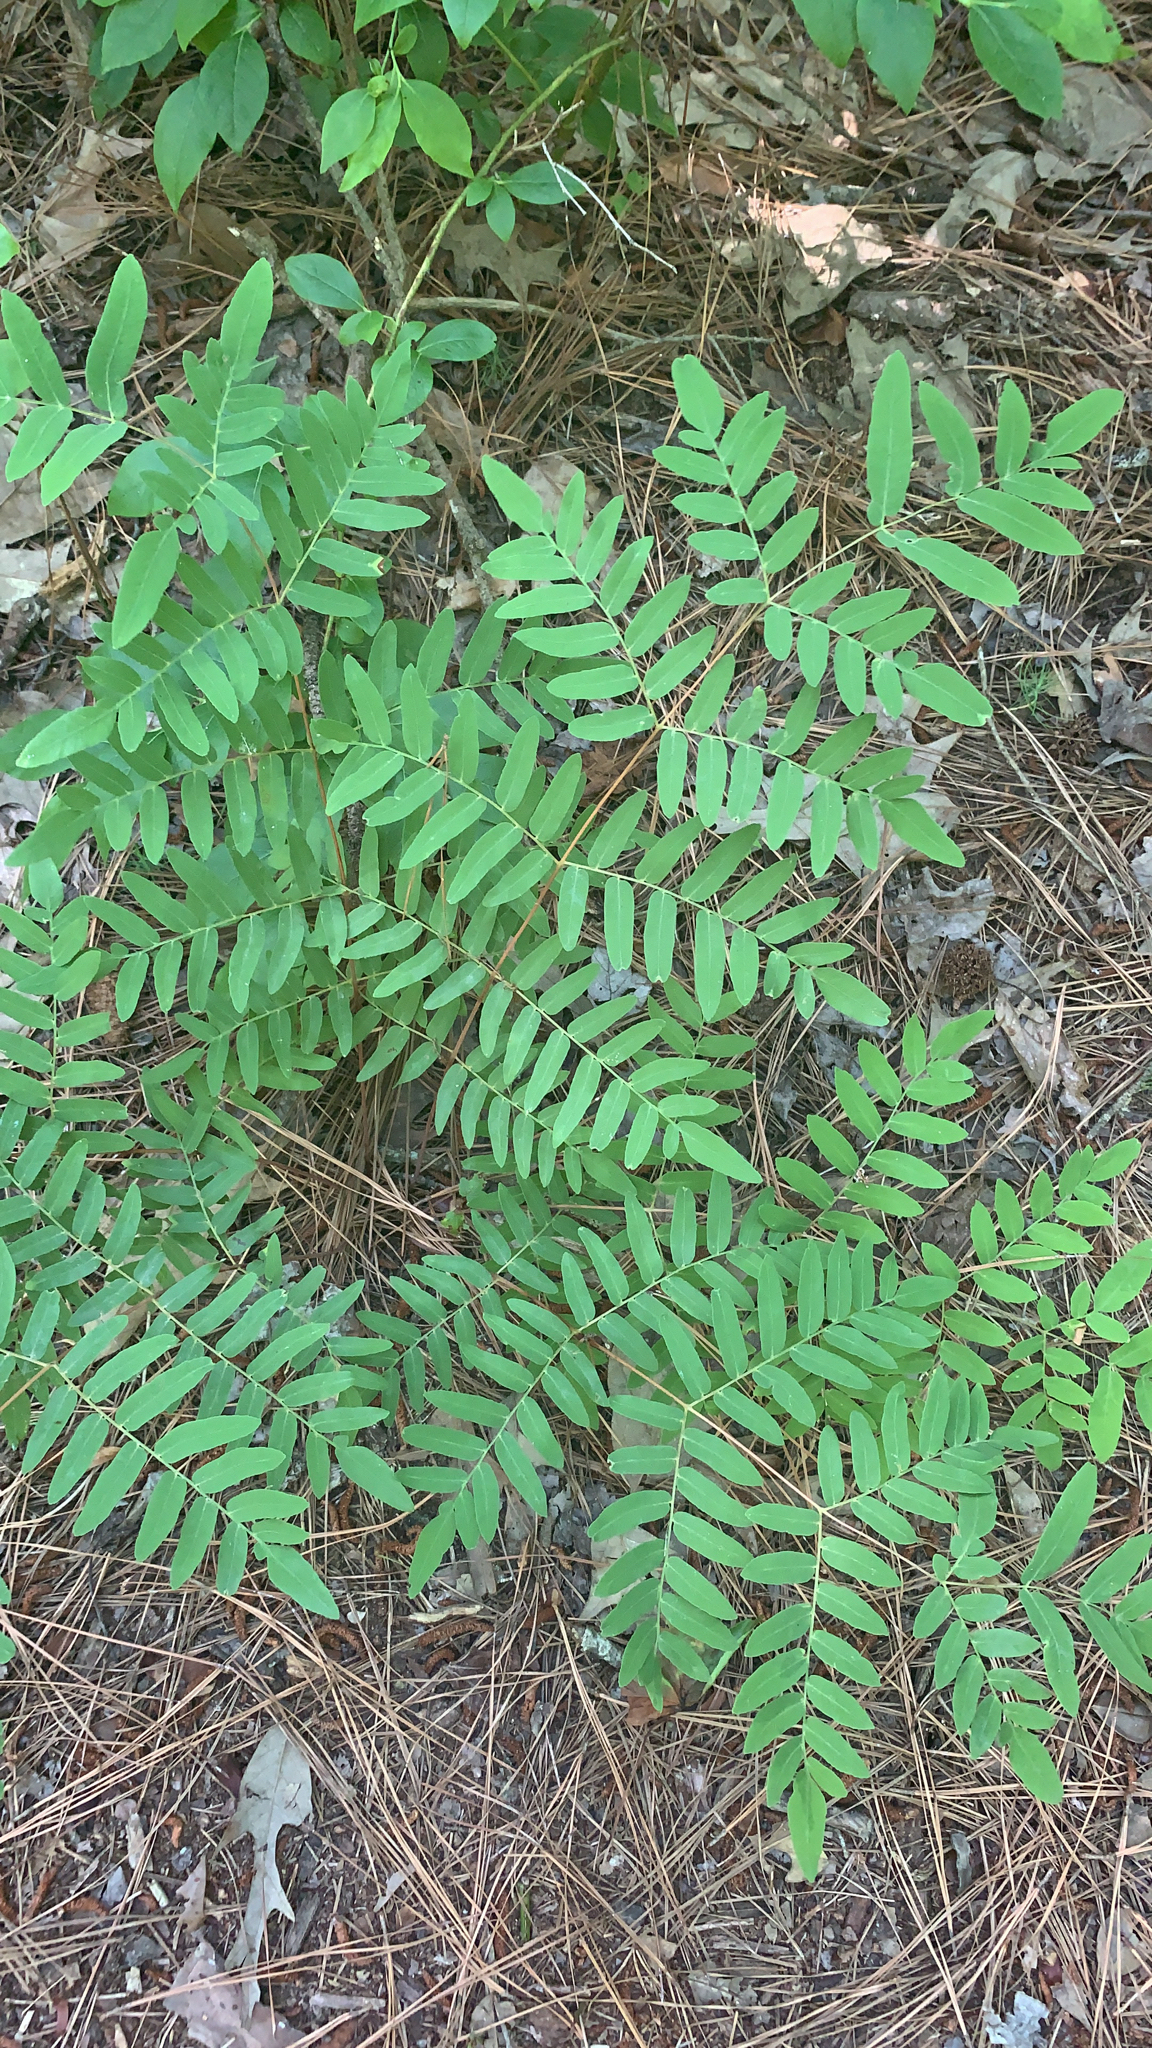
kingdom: Plantae
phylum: Tracheophyta
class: Polypodiopsida
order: Osmundales
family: Osmundaceae
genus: Osmunda
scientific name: Osmunda spectabilis
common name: American royal fern
